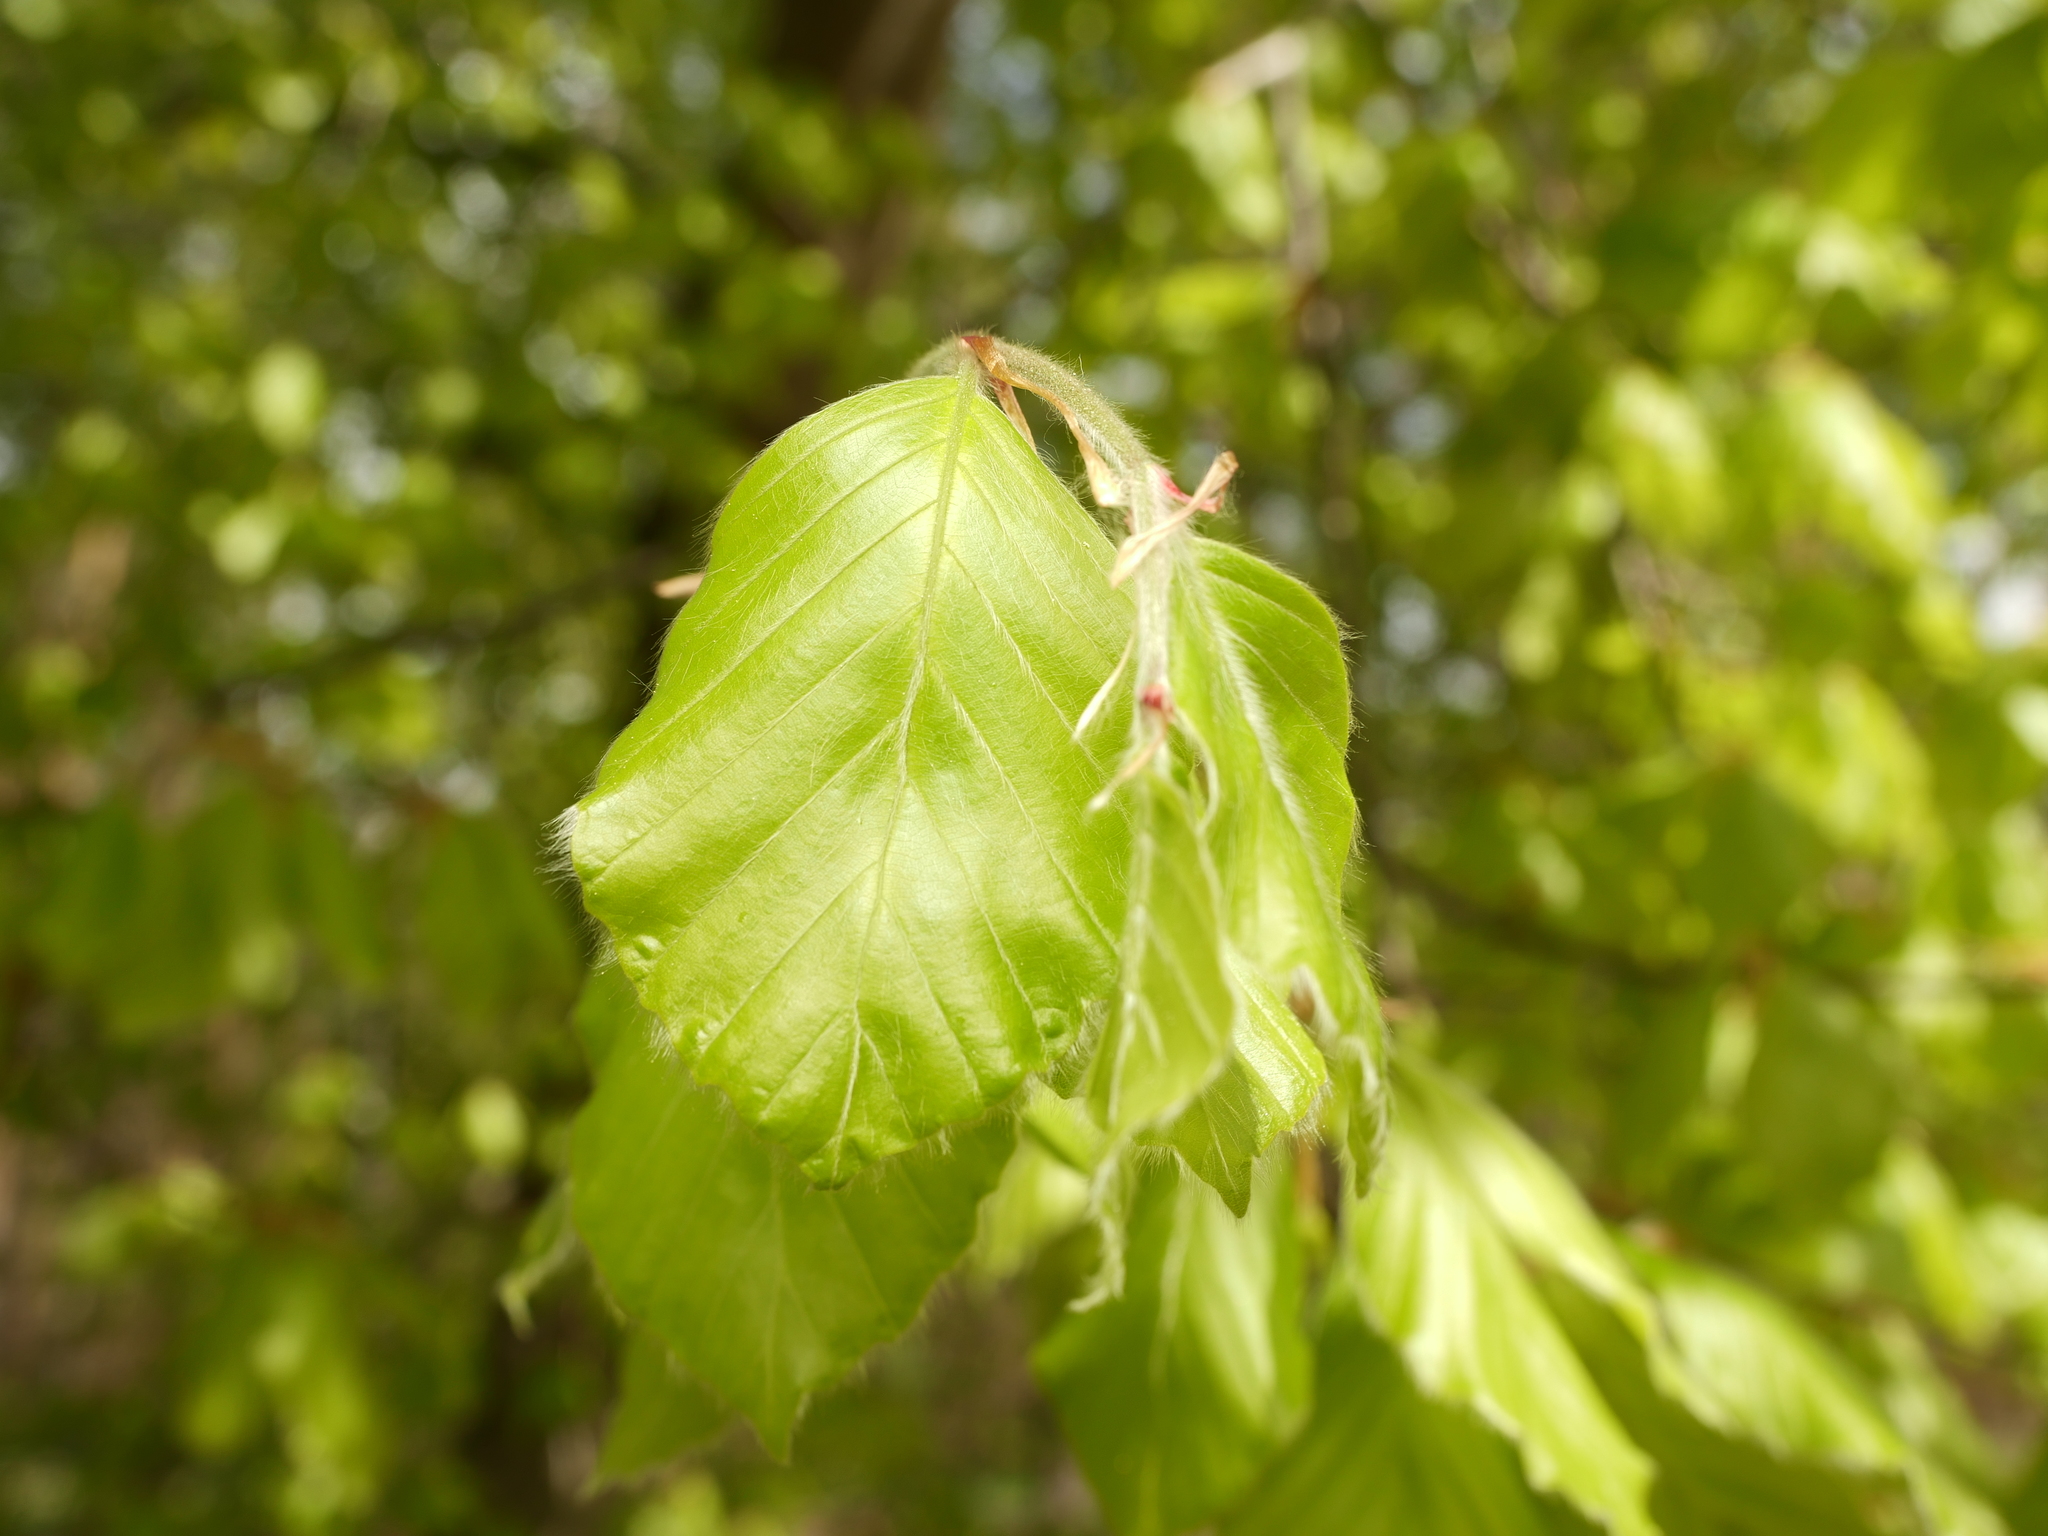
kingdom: Plantae
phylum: Tracheophyta
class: Magnoliopsida
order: Fagales
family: Fagaceae
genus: Fagus
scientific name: Fagus sylvatica
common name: Beech
